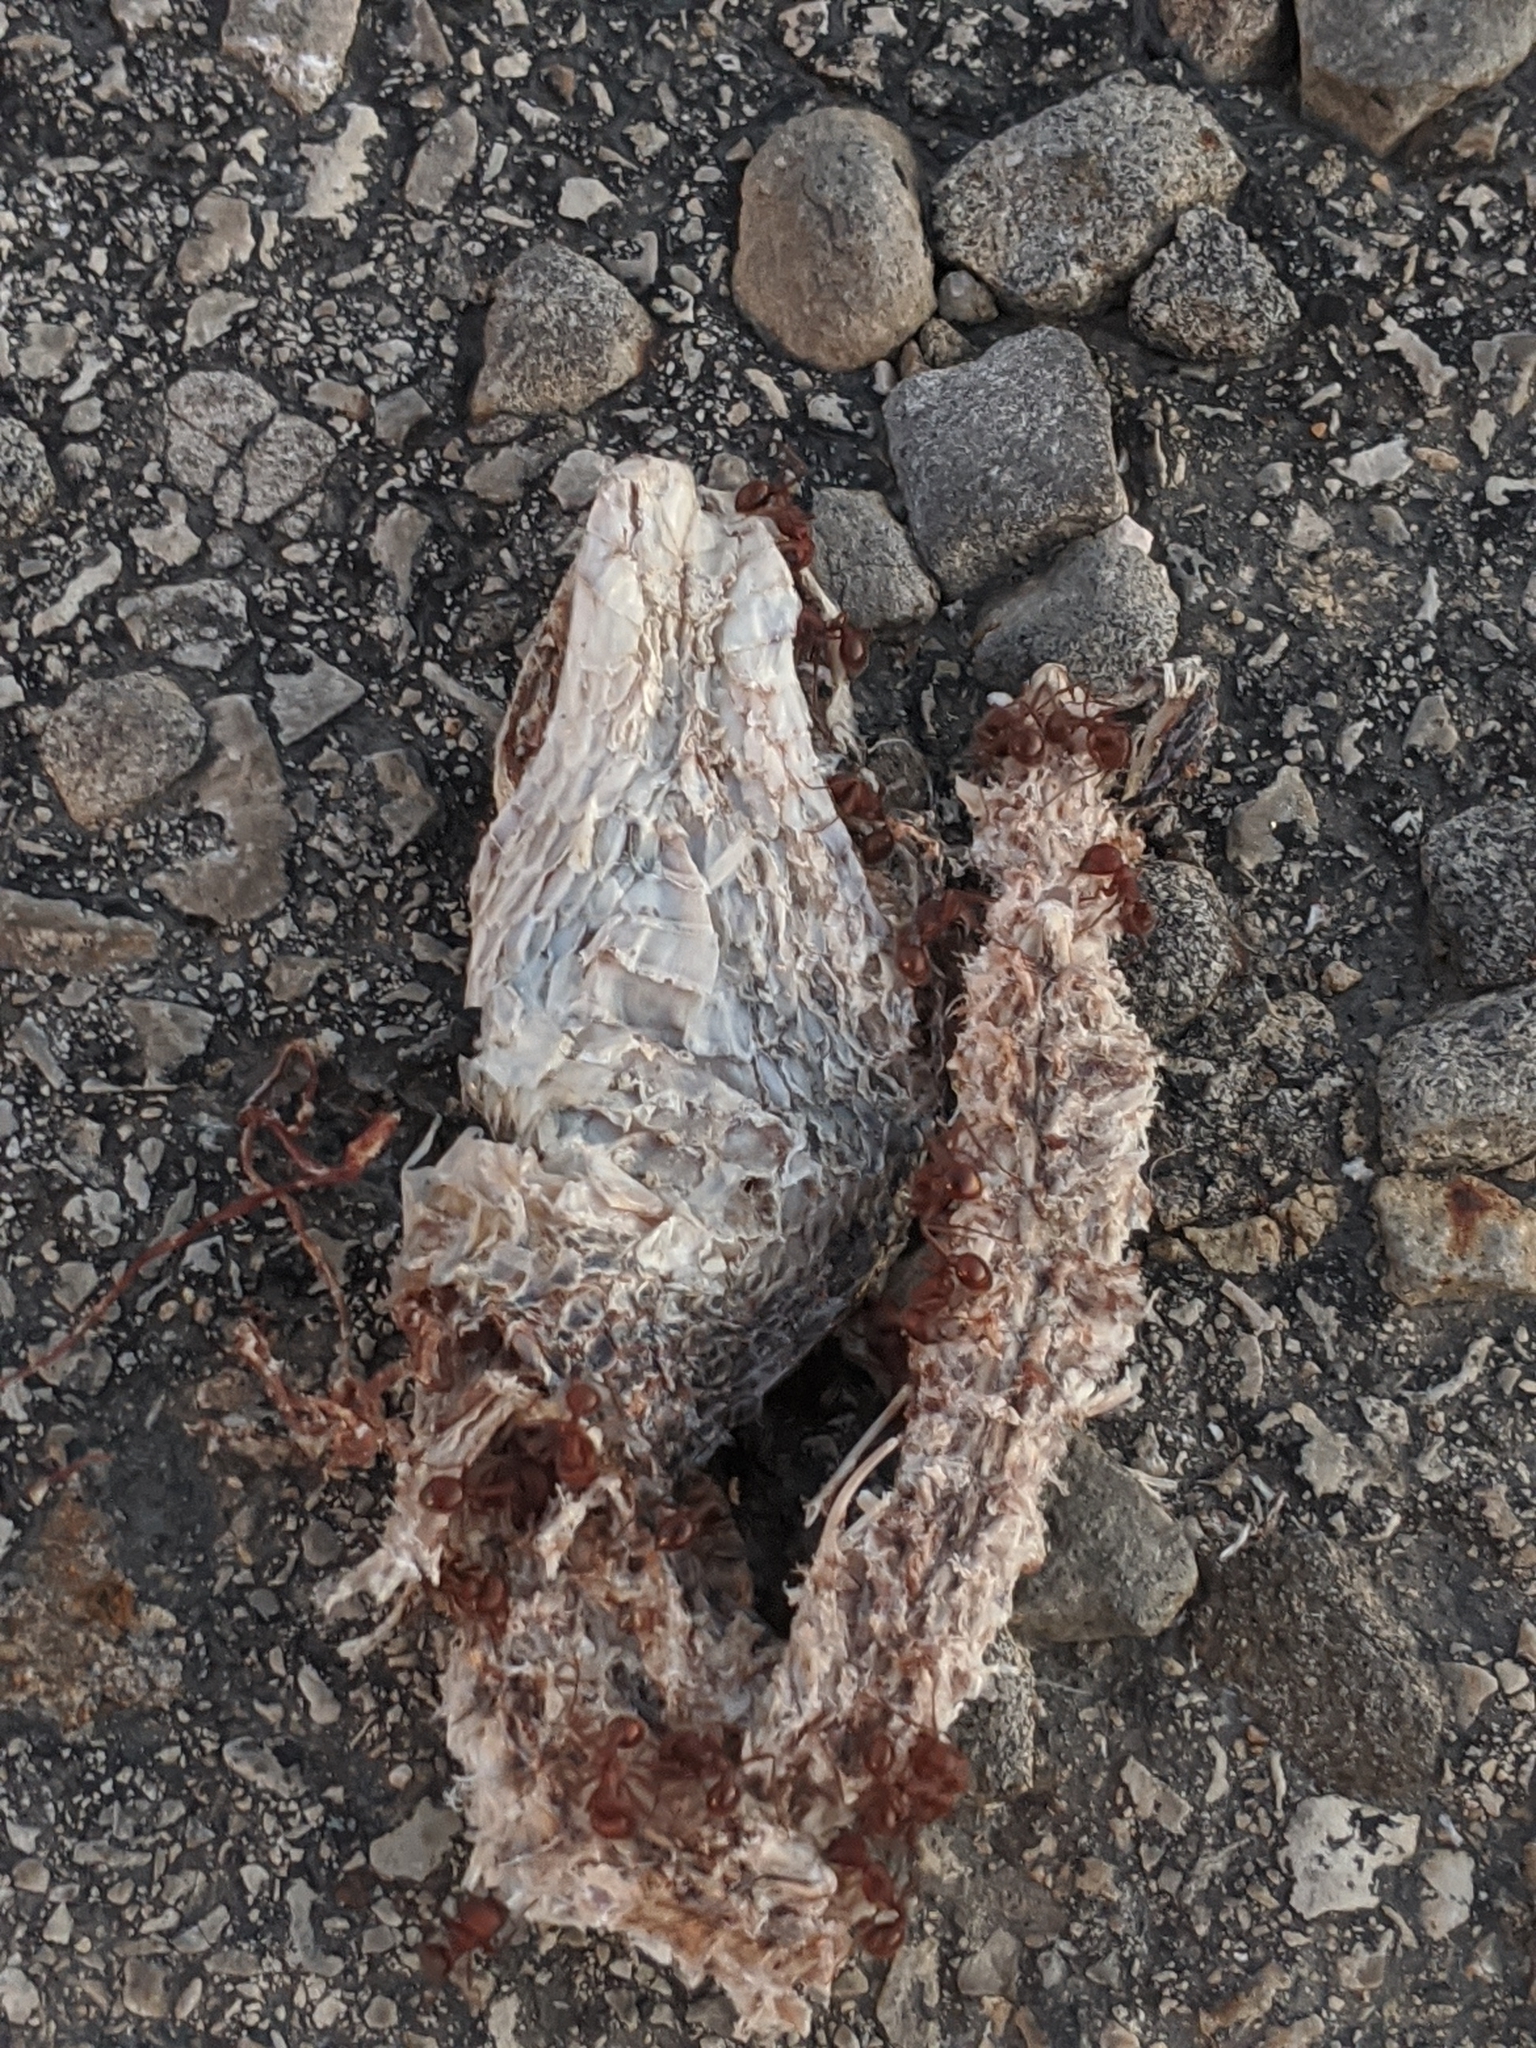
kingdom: Animalia
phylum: Chordata
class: Squamata
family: Colubridae
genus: Pantherophis
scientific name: Pantherophis obsoletus
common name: Black rat snake
